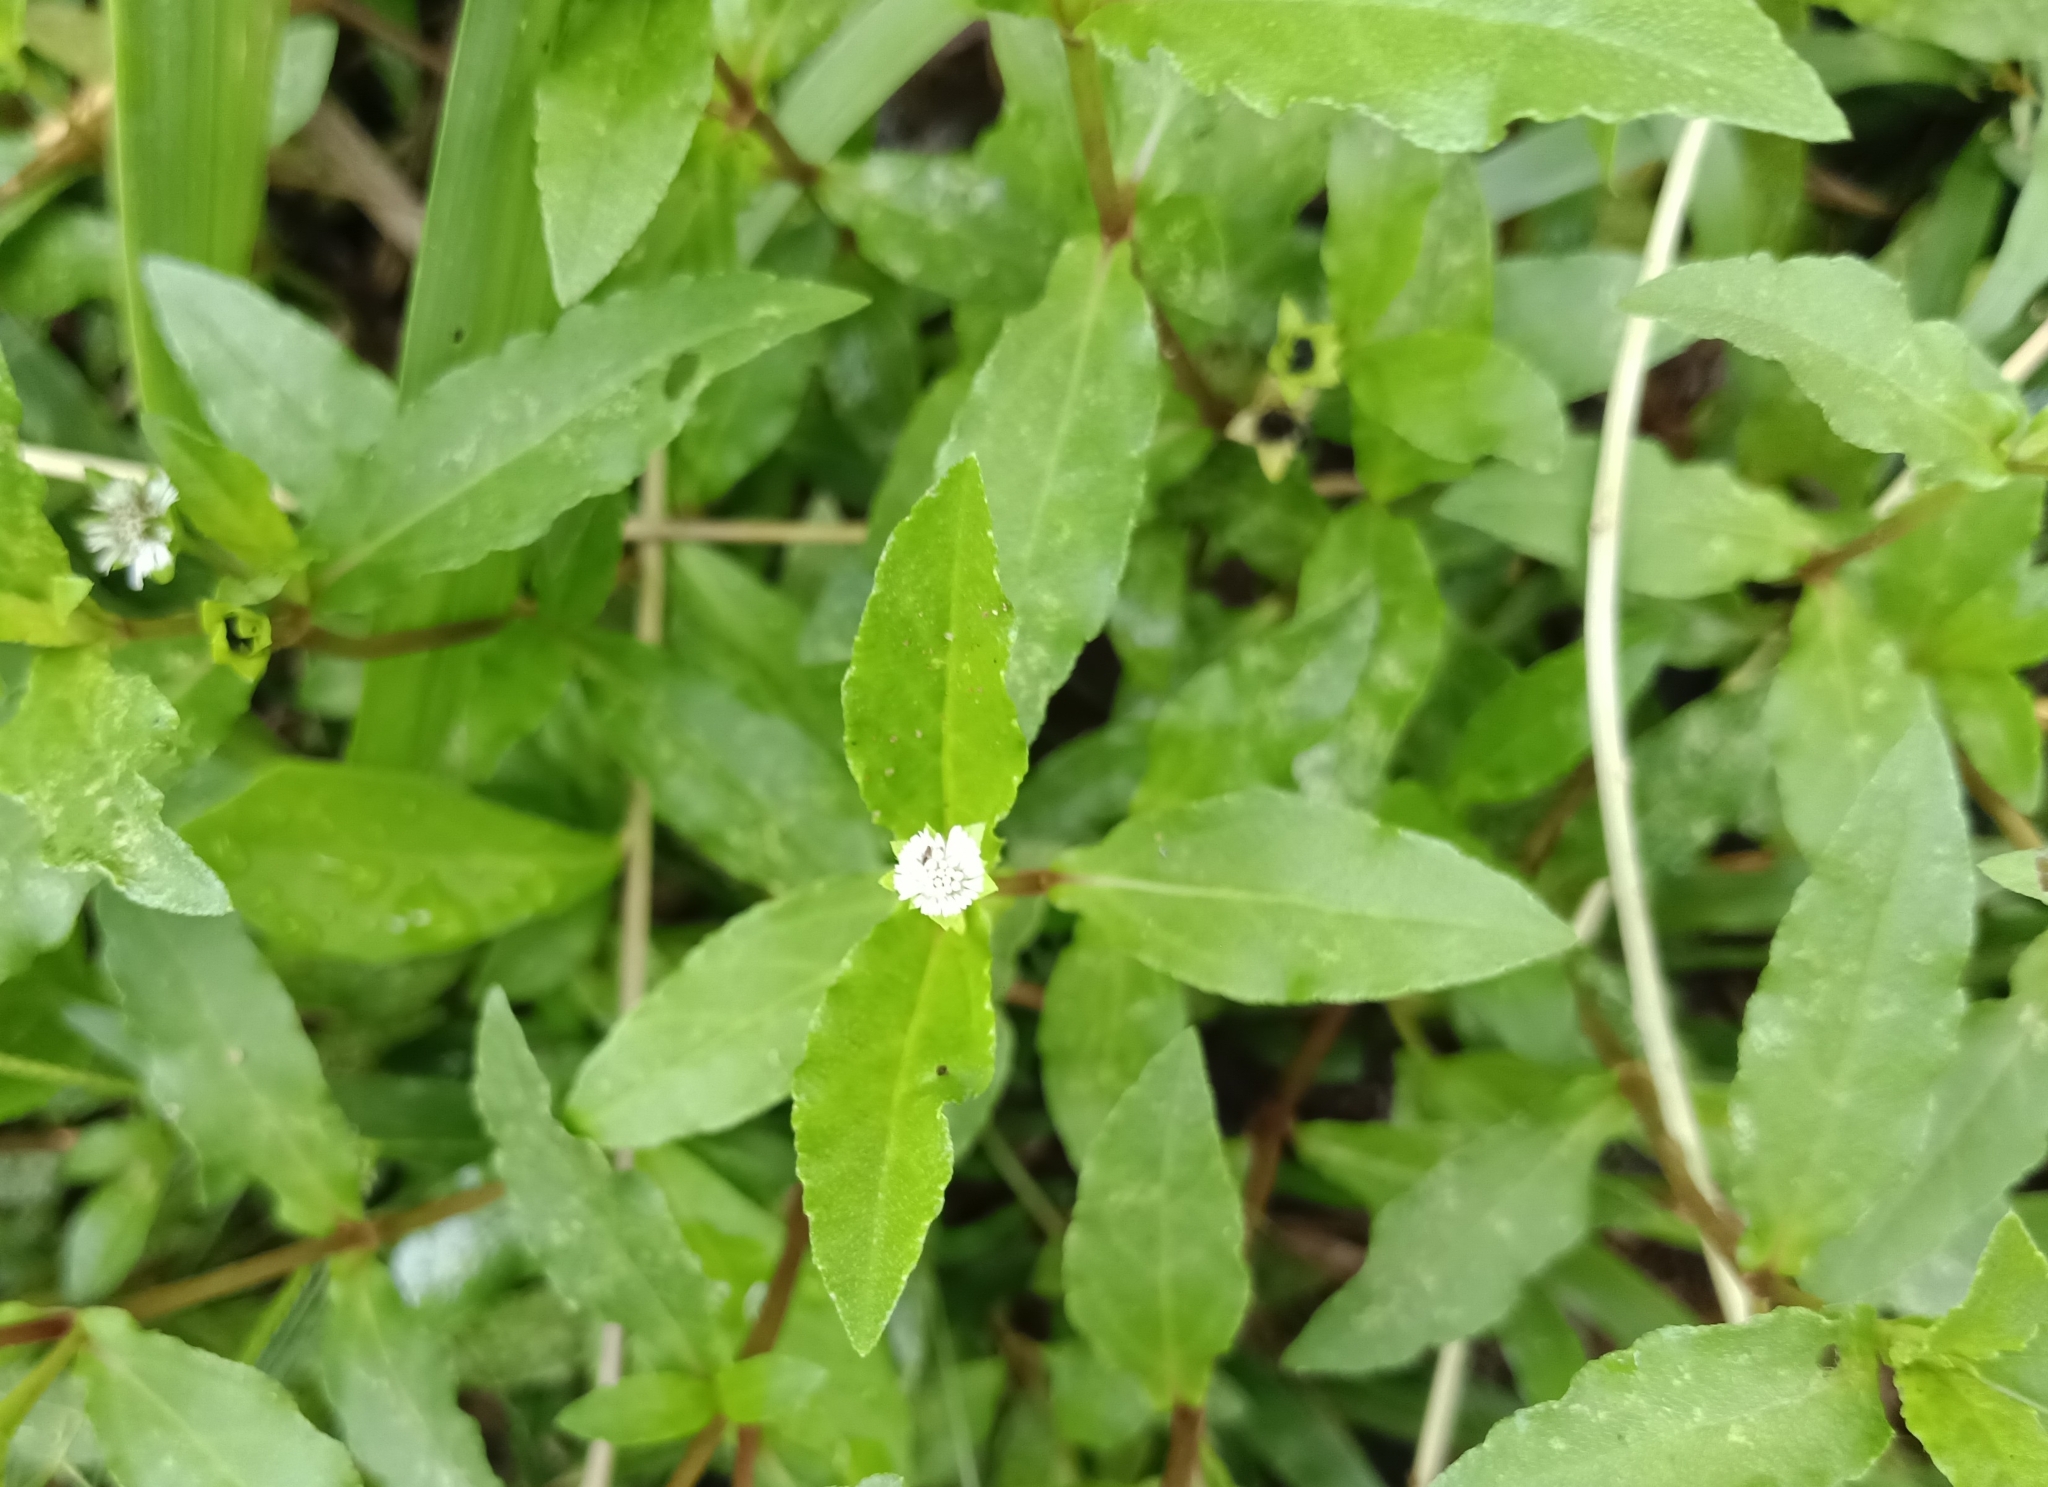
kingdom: Plantae
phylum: Tracheophyta
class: Magnoliopsida
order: Asterales
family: Asteraceae
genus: Eclipta
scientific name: Eclipta prostrata
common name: False daisy
